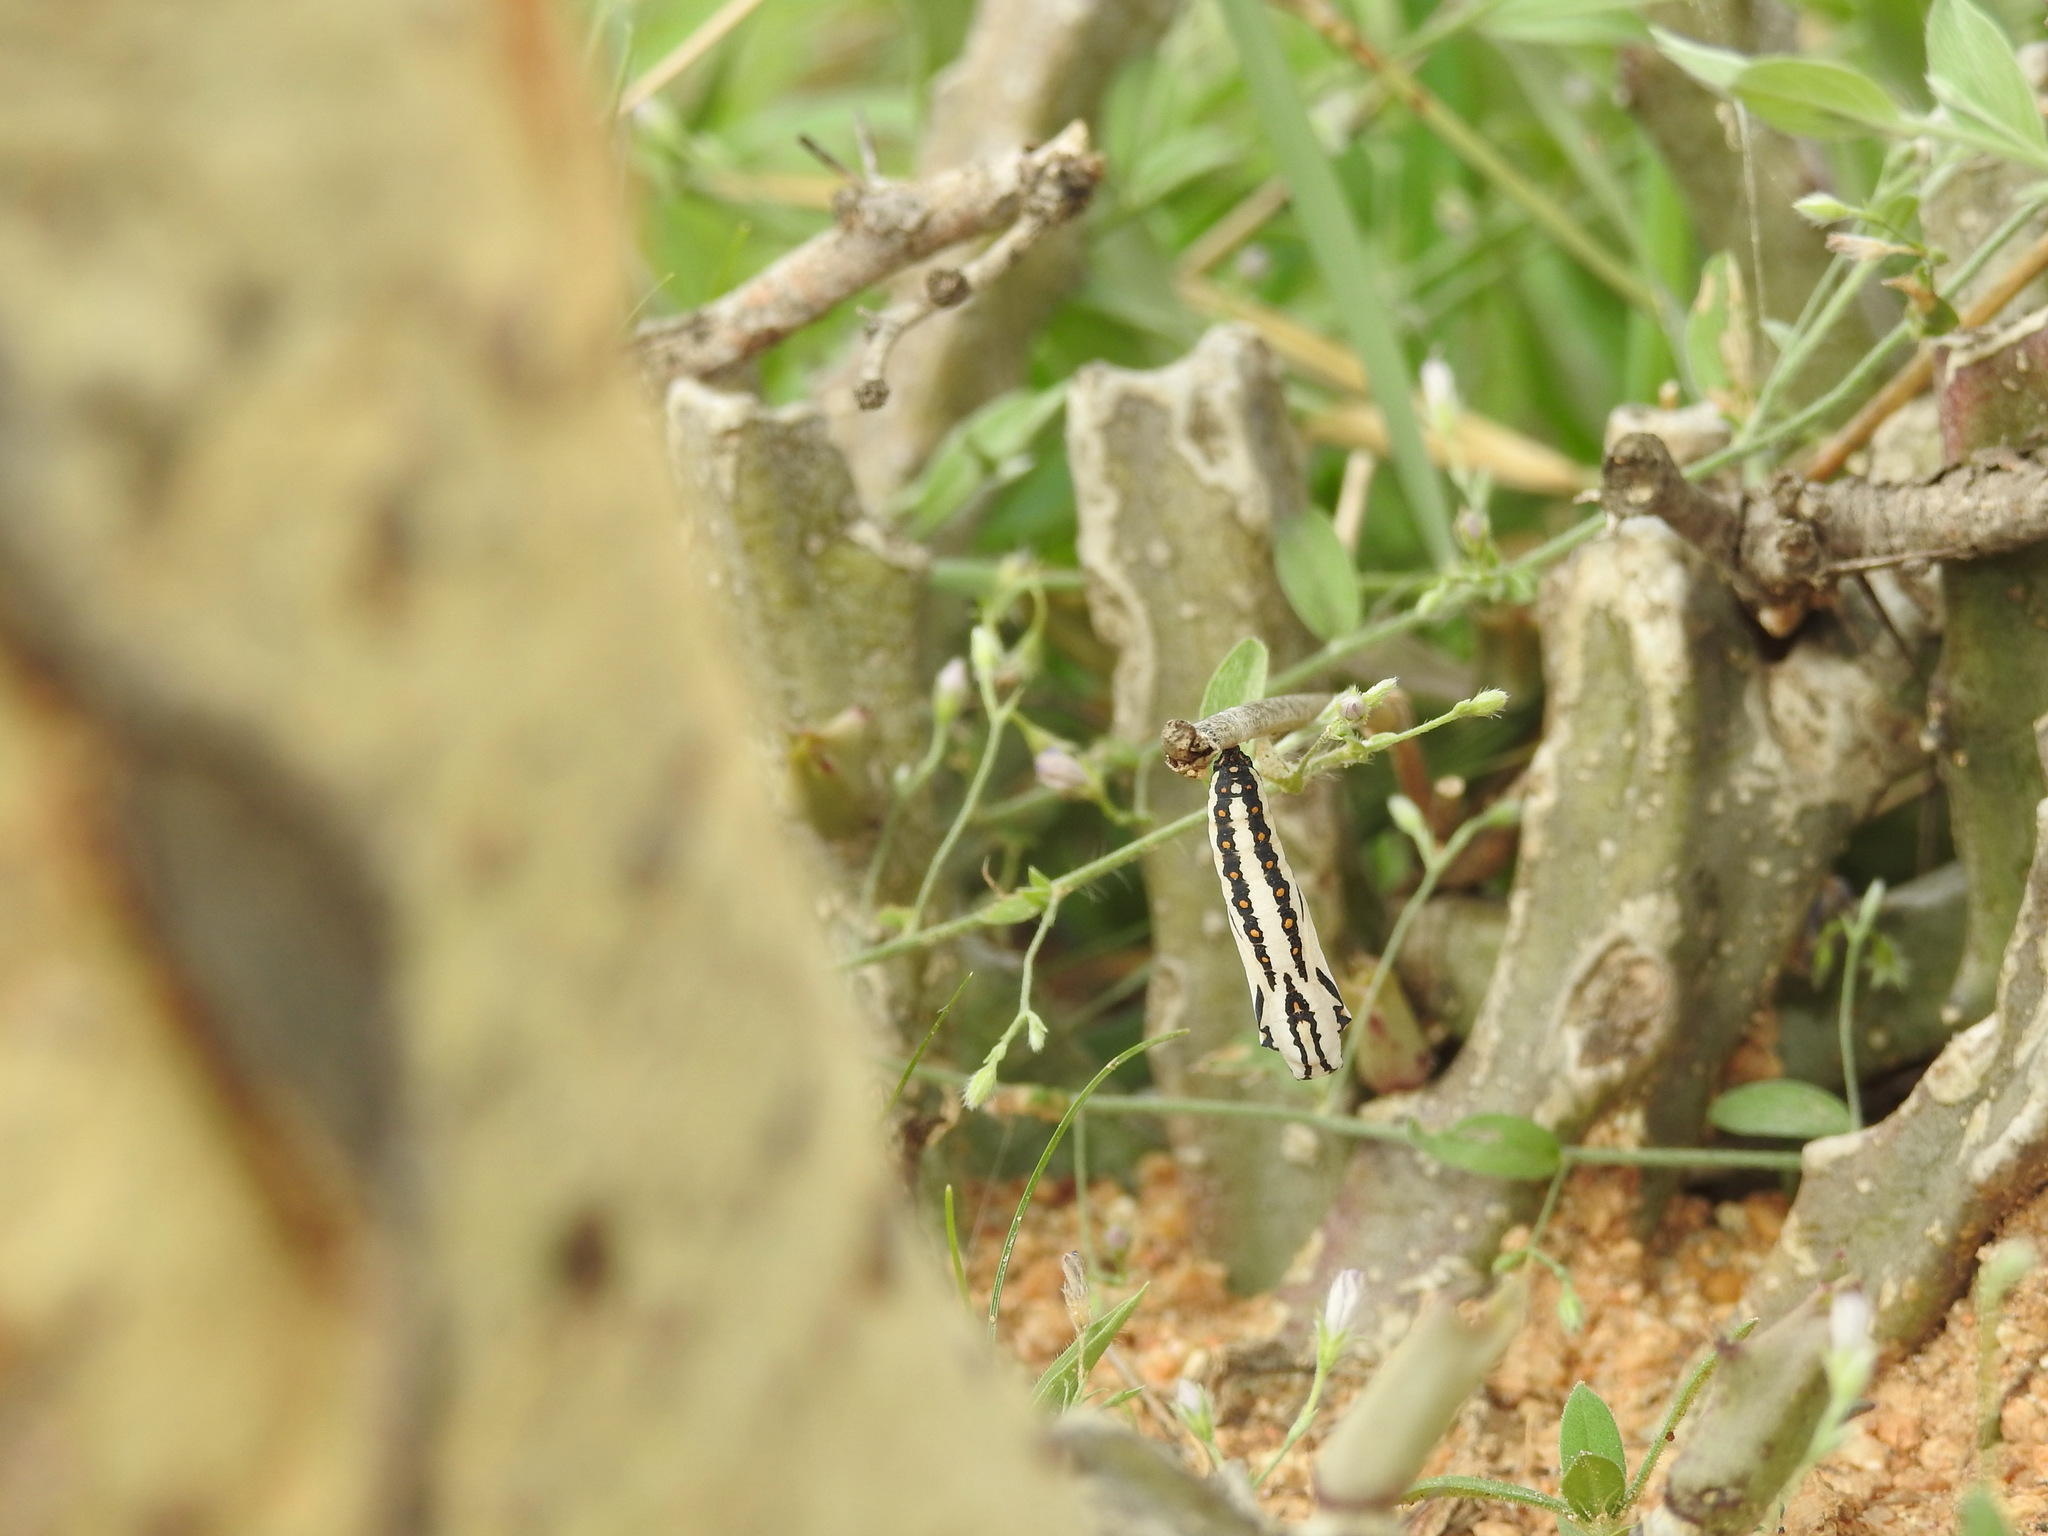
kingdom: Animalia
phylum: Arthropoda
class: Insecta
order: Lepidoptera
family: Nymphalidae
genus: Acraea
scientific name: Acraea terpsicore
